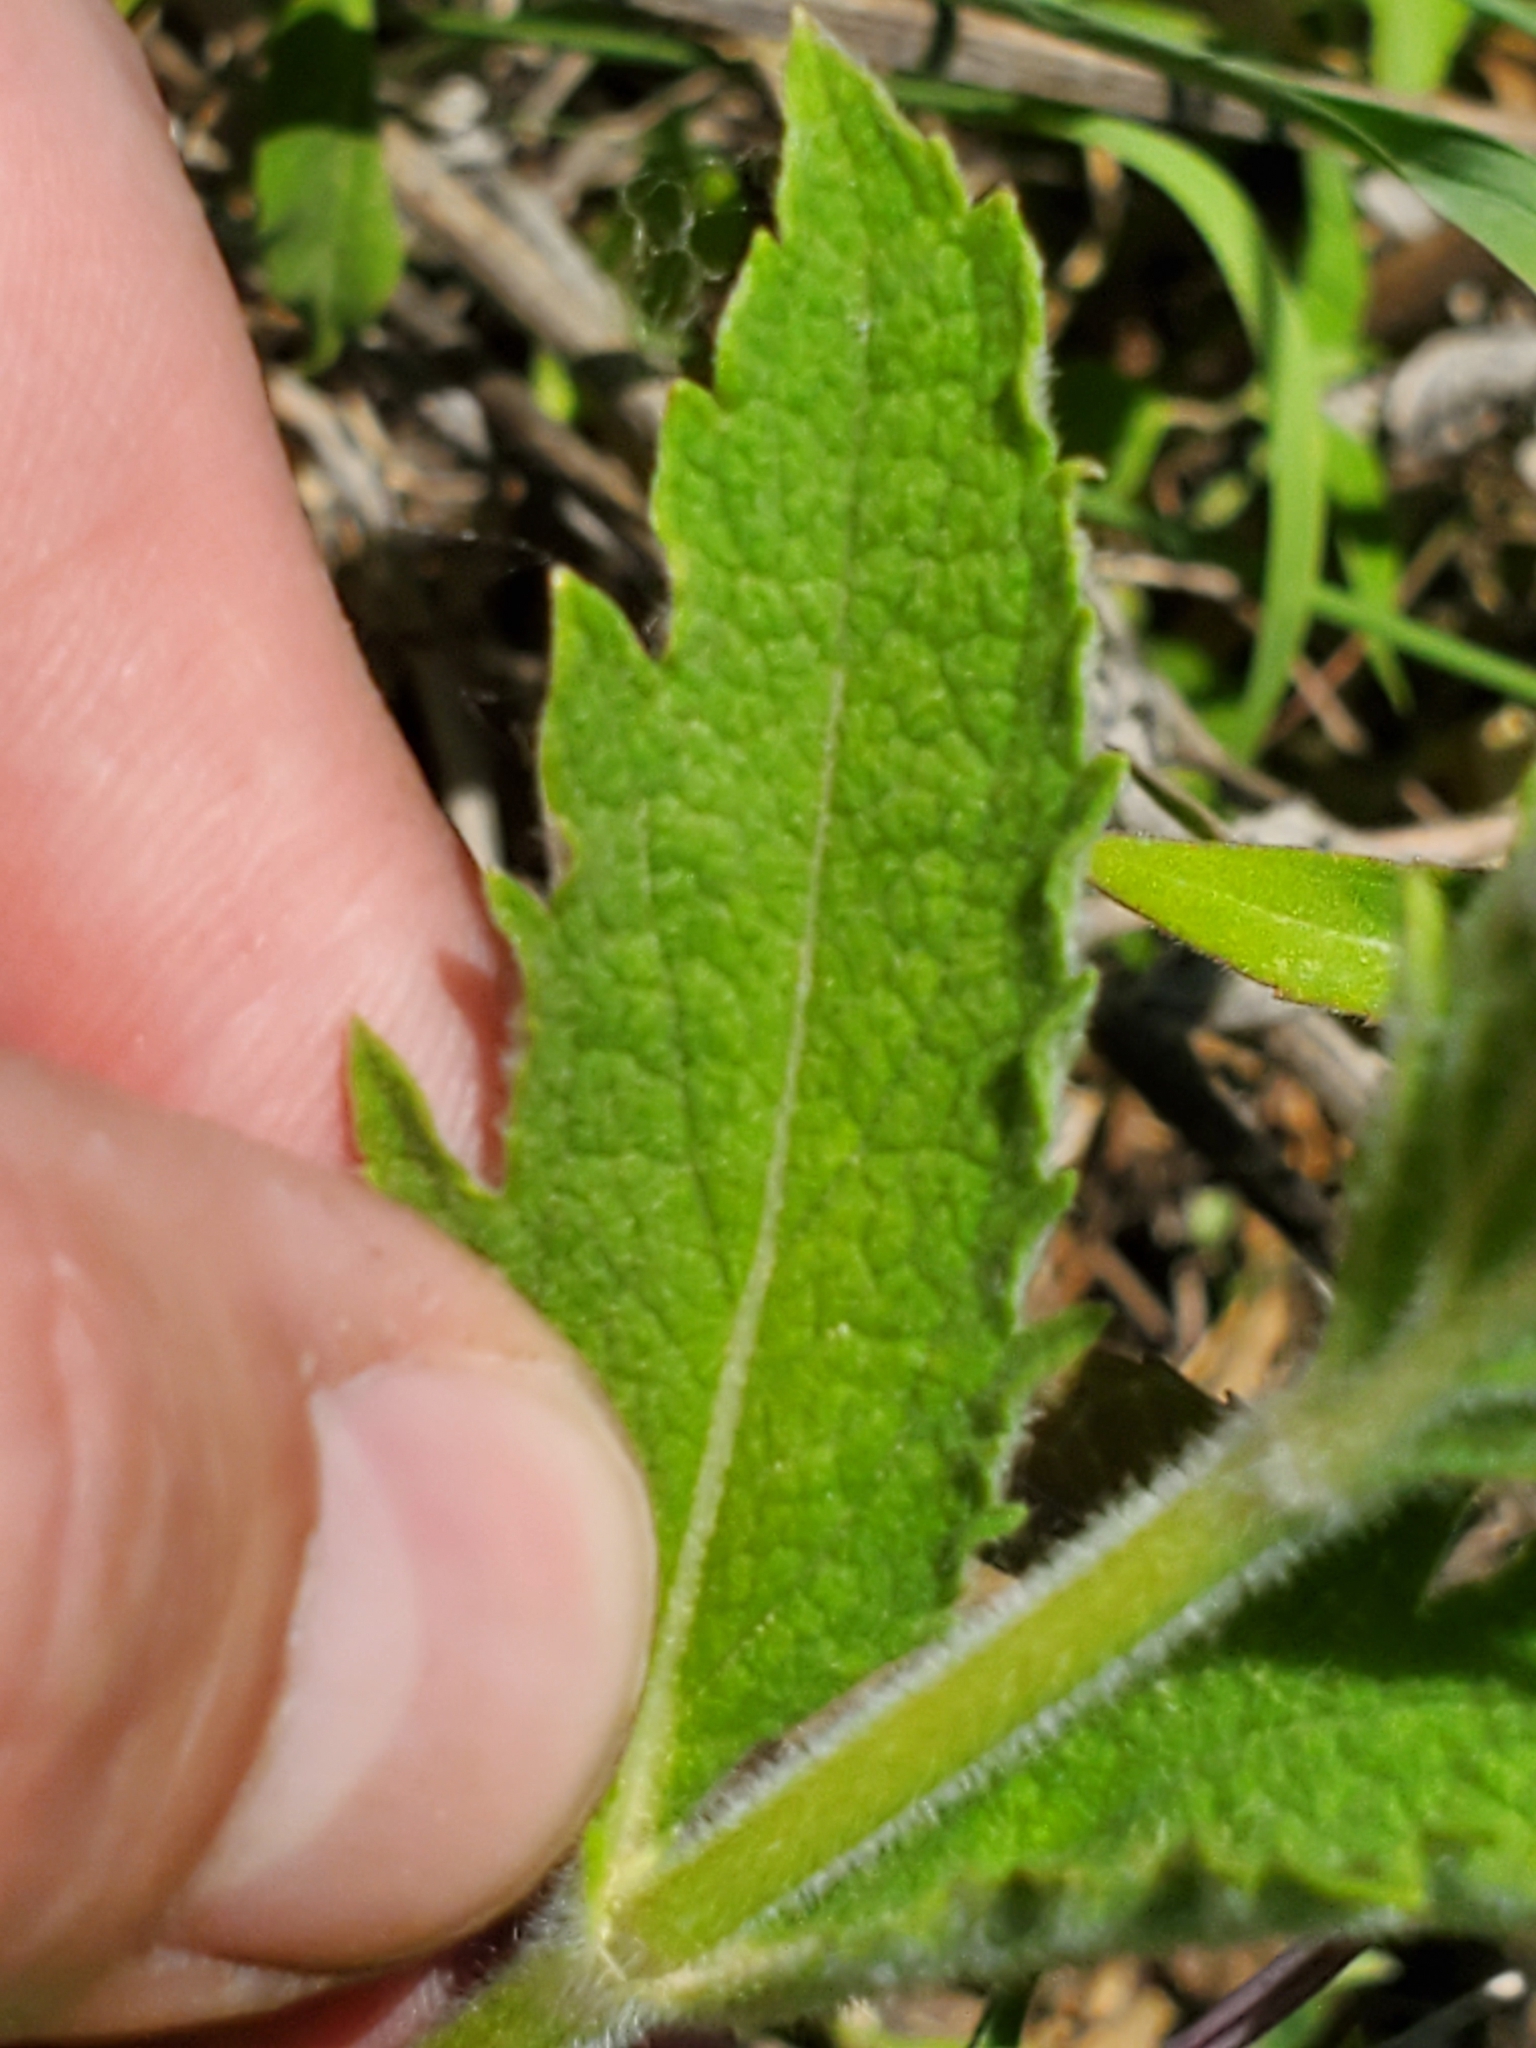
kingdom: Plantae
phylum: Tracheophyta
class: Magnoliopsida
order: Lamiales
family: Verbenaceae
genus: Verbena
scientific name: Verbena stricta
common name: Hoary vervain
